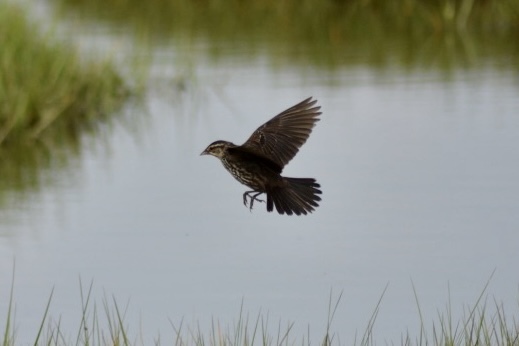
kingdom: Animalia
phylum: Chordata
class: Aves
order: Passeriformes
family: Icteridae
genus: Agelaius
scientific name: Agelaius phoeniceus
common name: Red-winged blackbird
